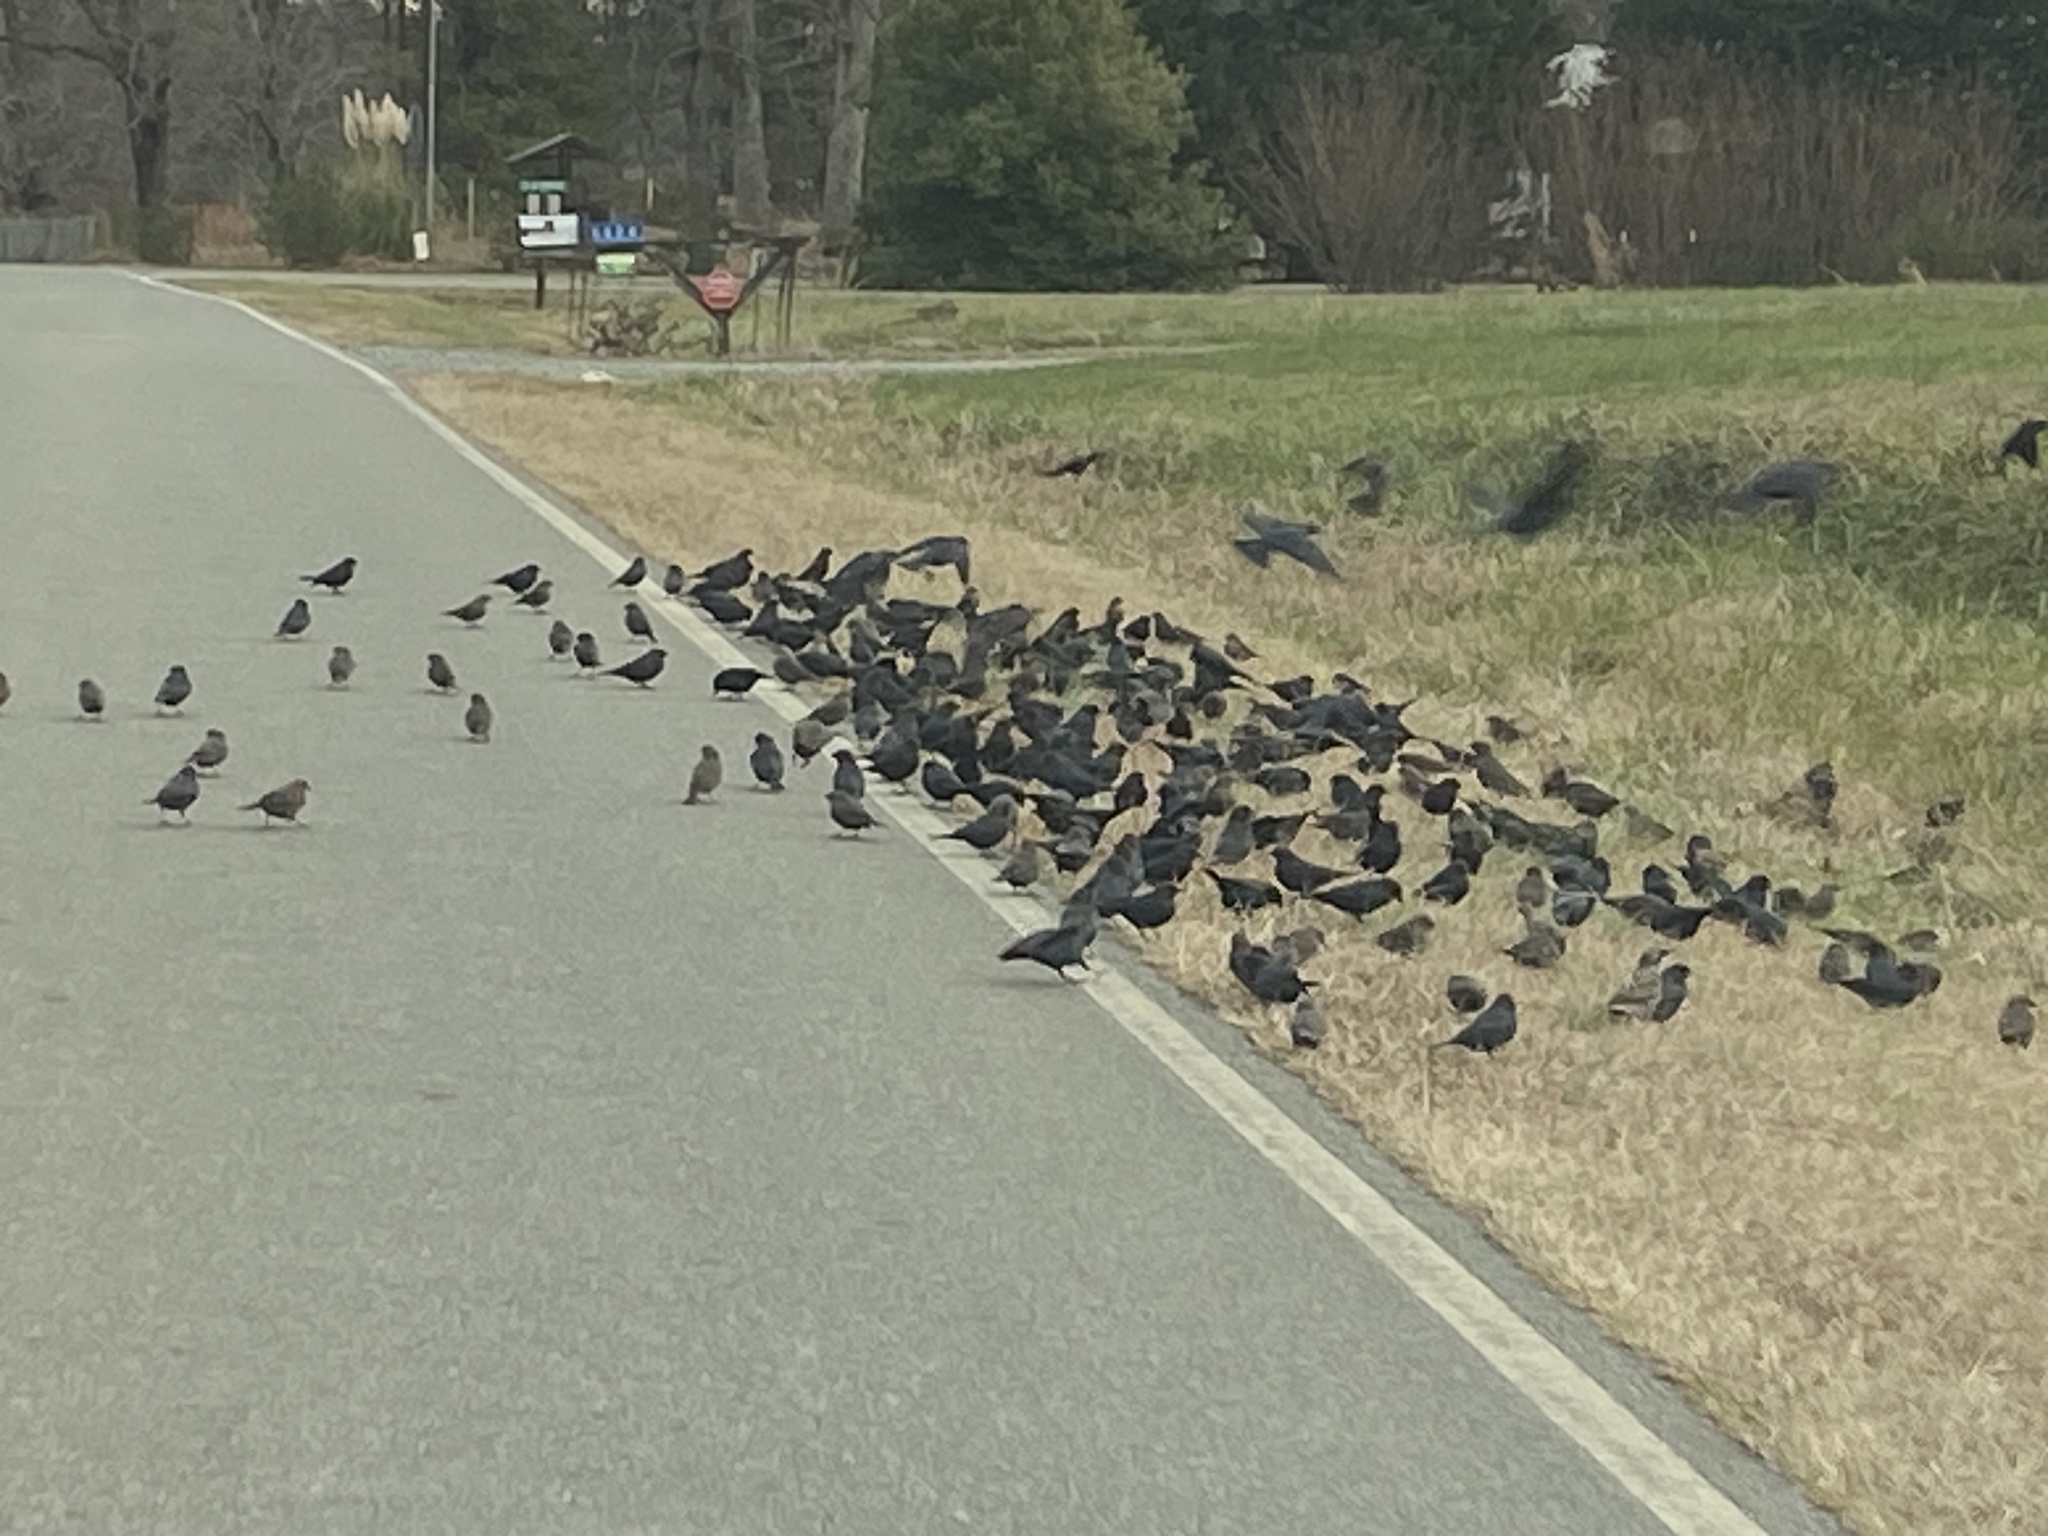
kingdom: Animalia
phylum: Chordata
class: Aves
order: Passeriformes
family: Sturnidae
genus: Sturnus
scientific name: Sturnus vulgaris
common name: Common starling
